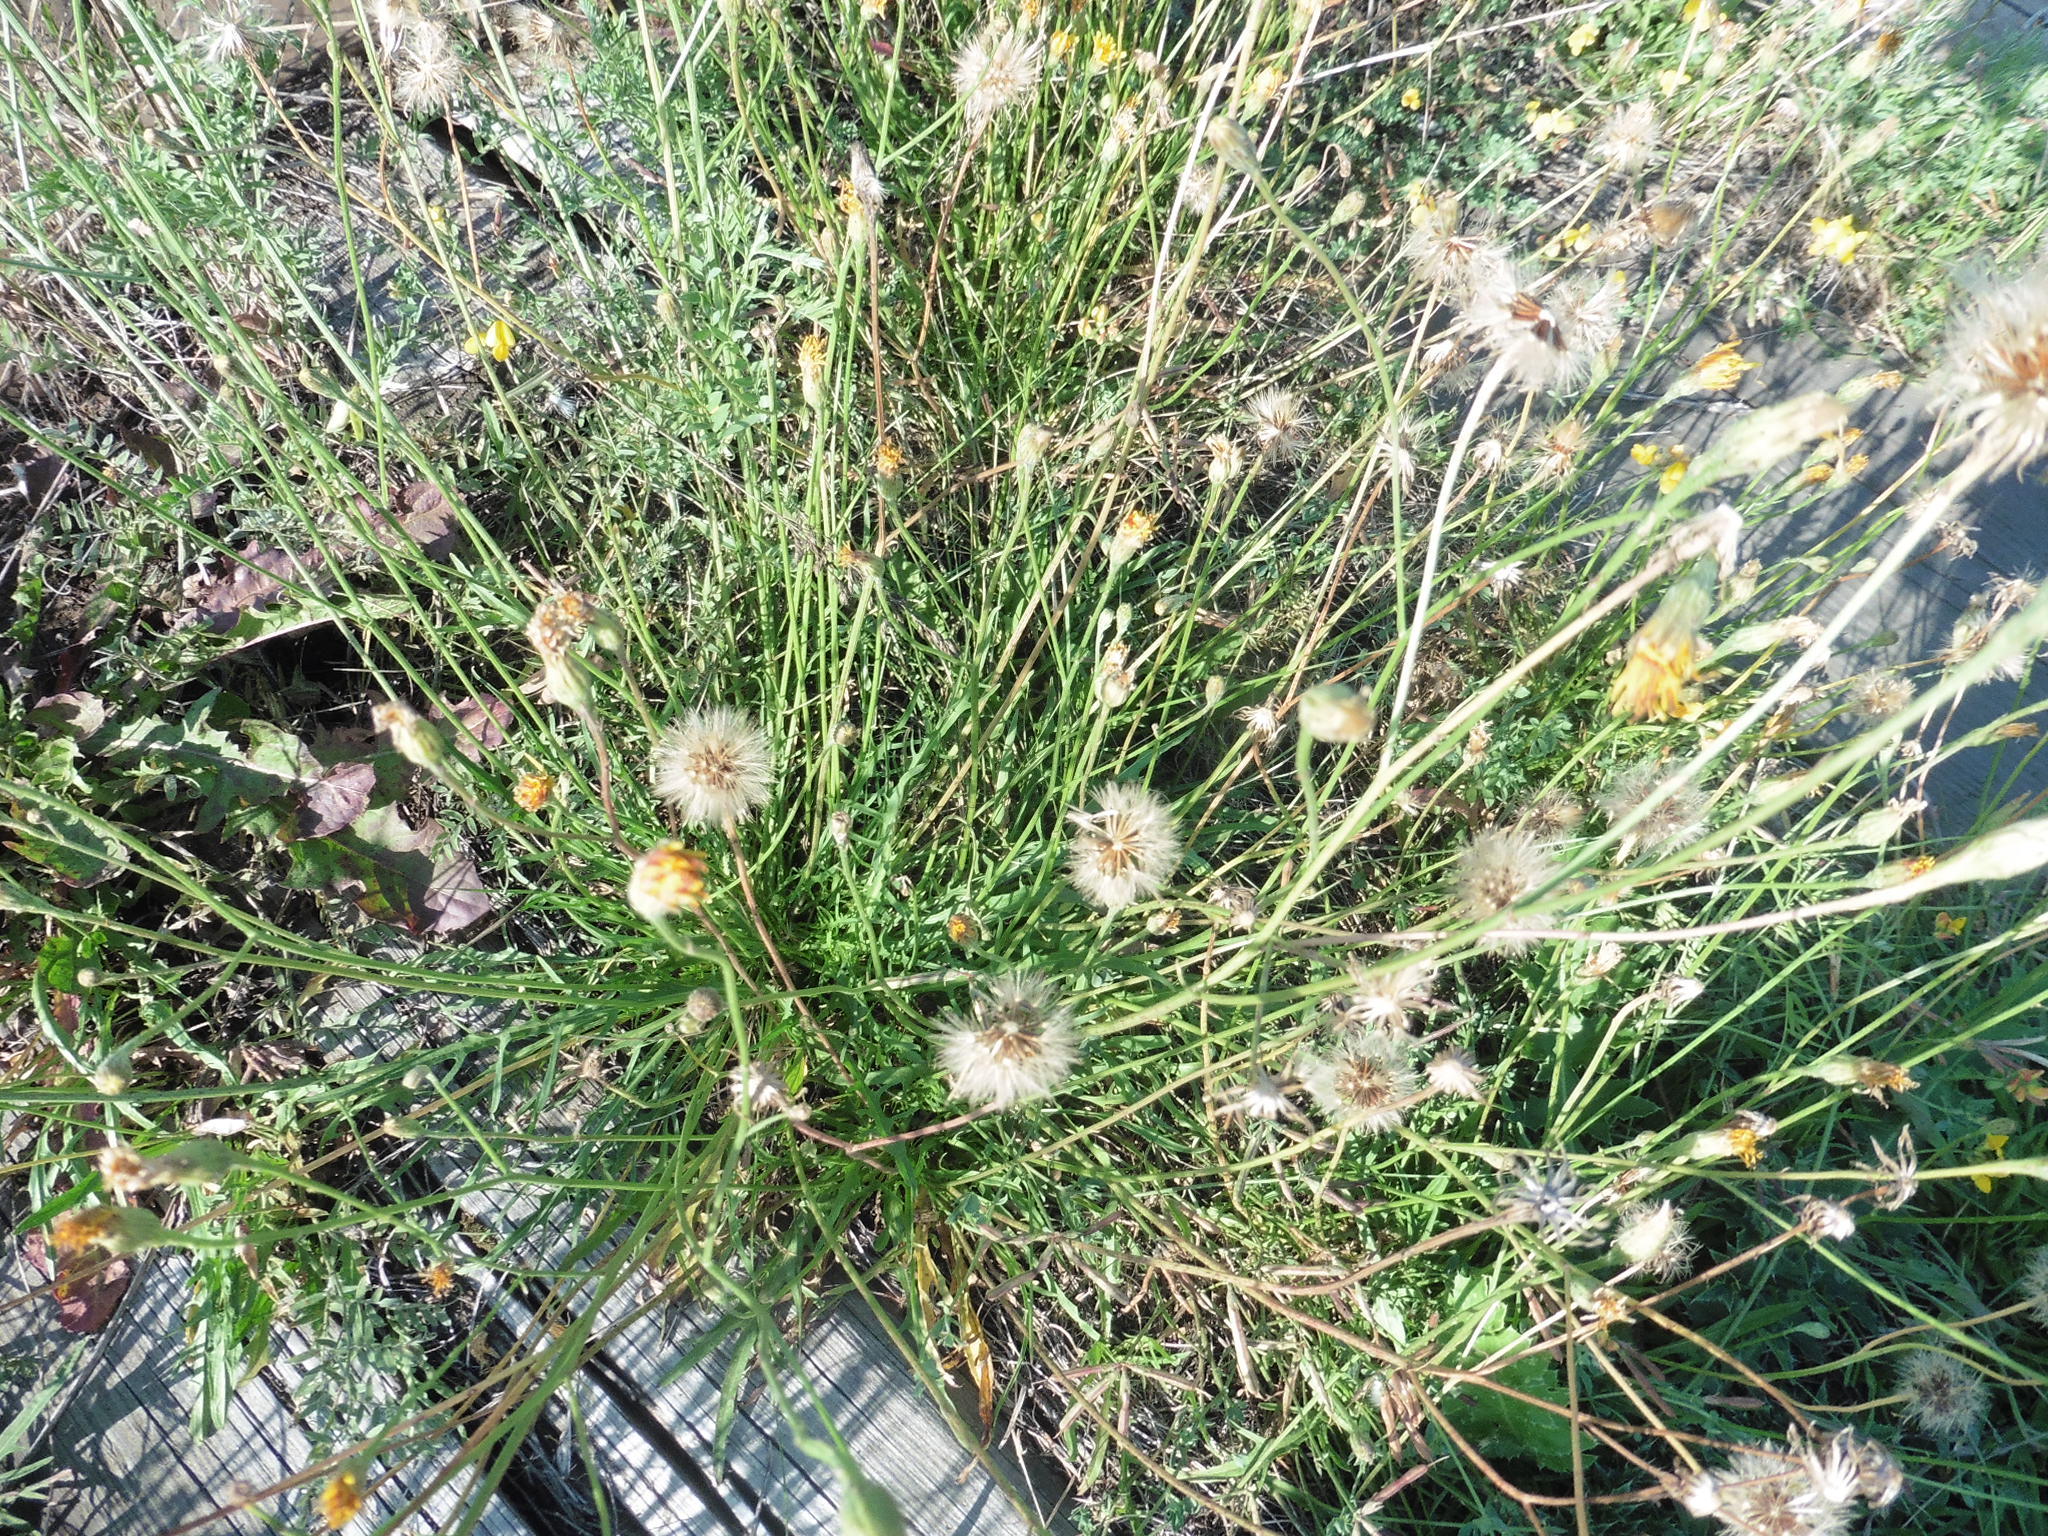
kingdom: Plantae
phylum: Tracheophyta
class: Magnoliopsida
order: Asterales
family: Asteraceae
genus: Scorzoneroides
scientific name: Scorzoneroides autumnalis
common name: Autumn hawkbit
